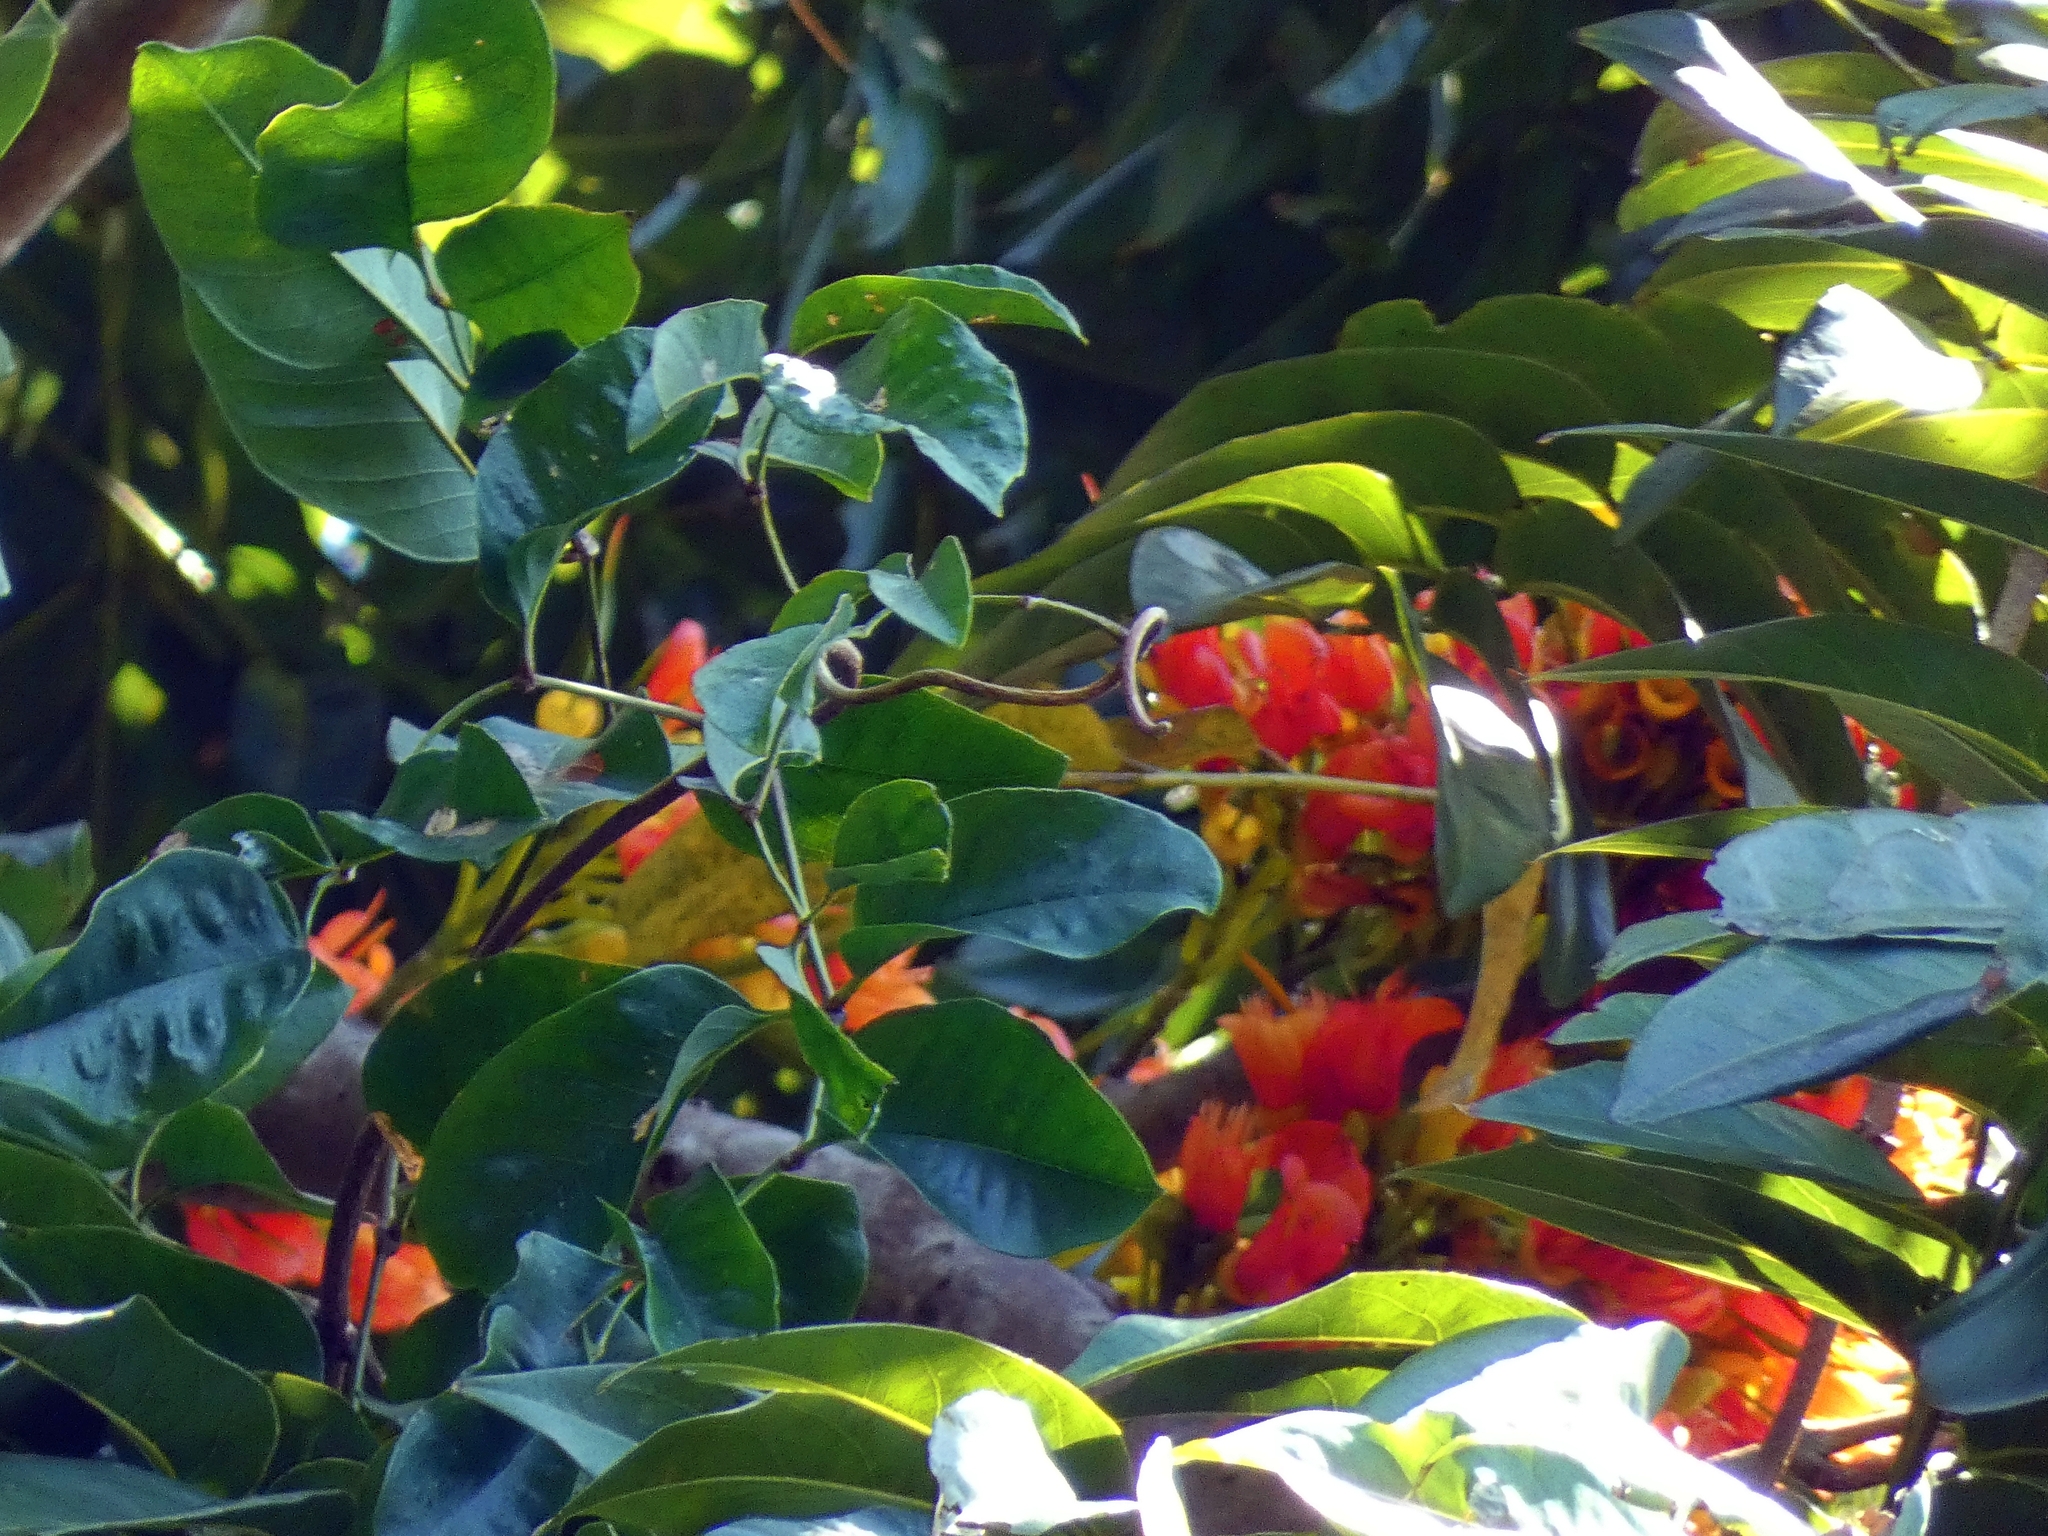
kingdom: Plantae
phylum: Tracheophyta
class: Magnoliopsida
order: Fabales
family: Fabaceae
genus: Castanospermum
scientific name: Castanospermum australe
